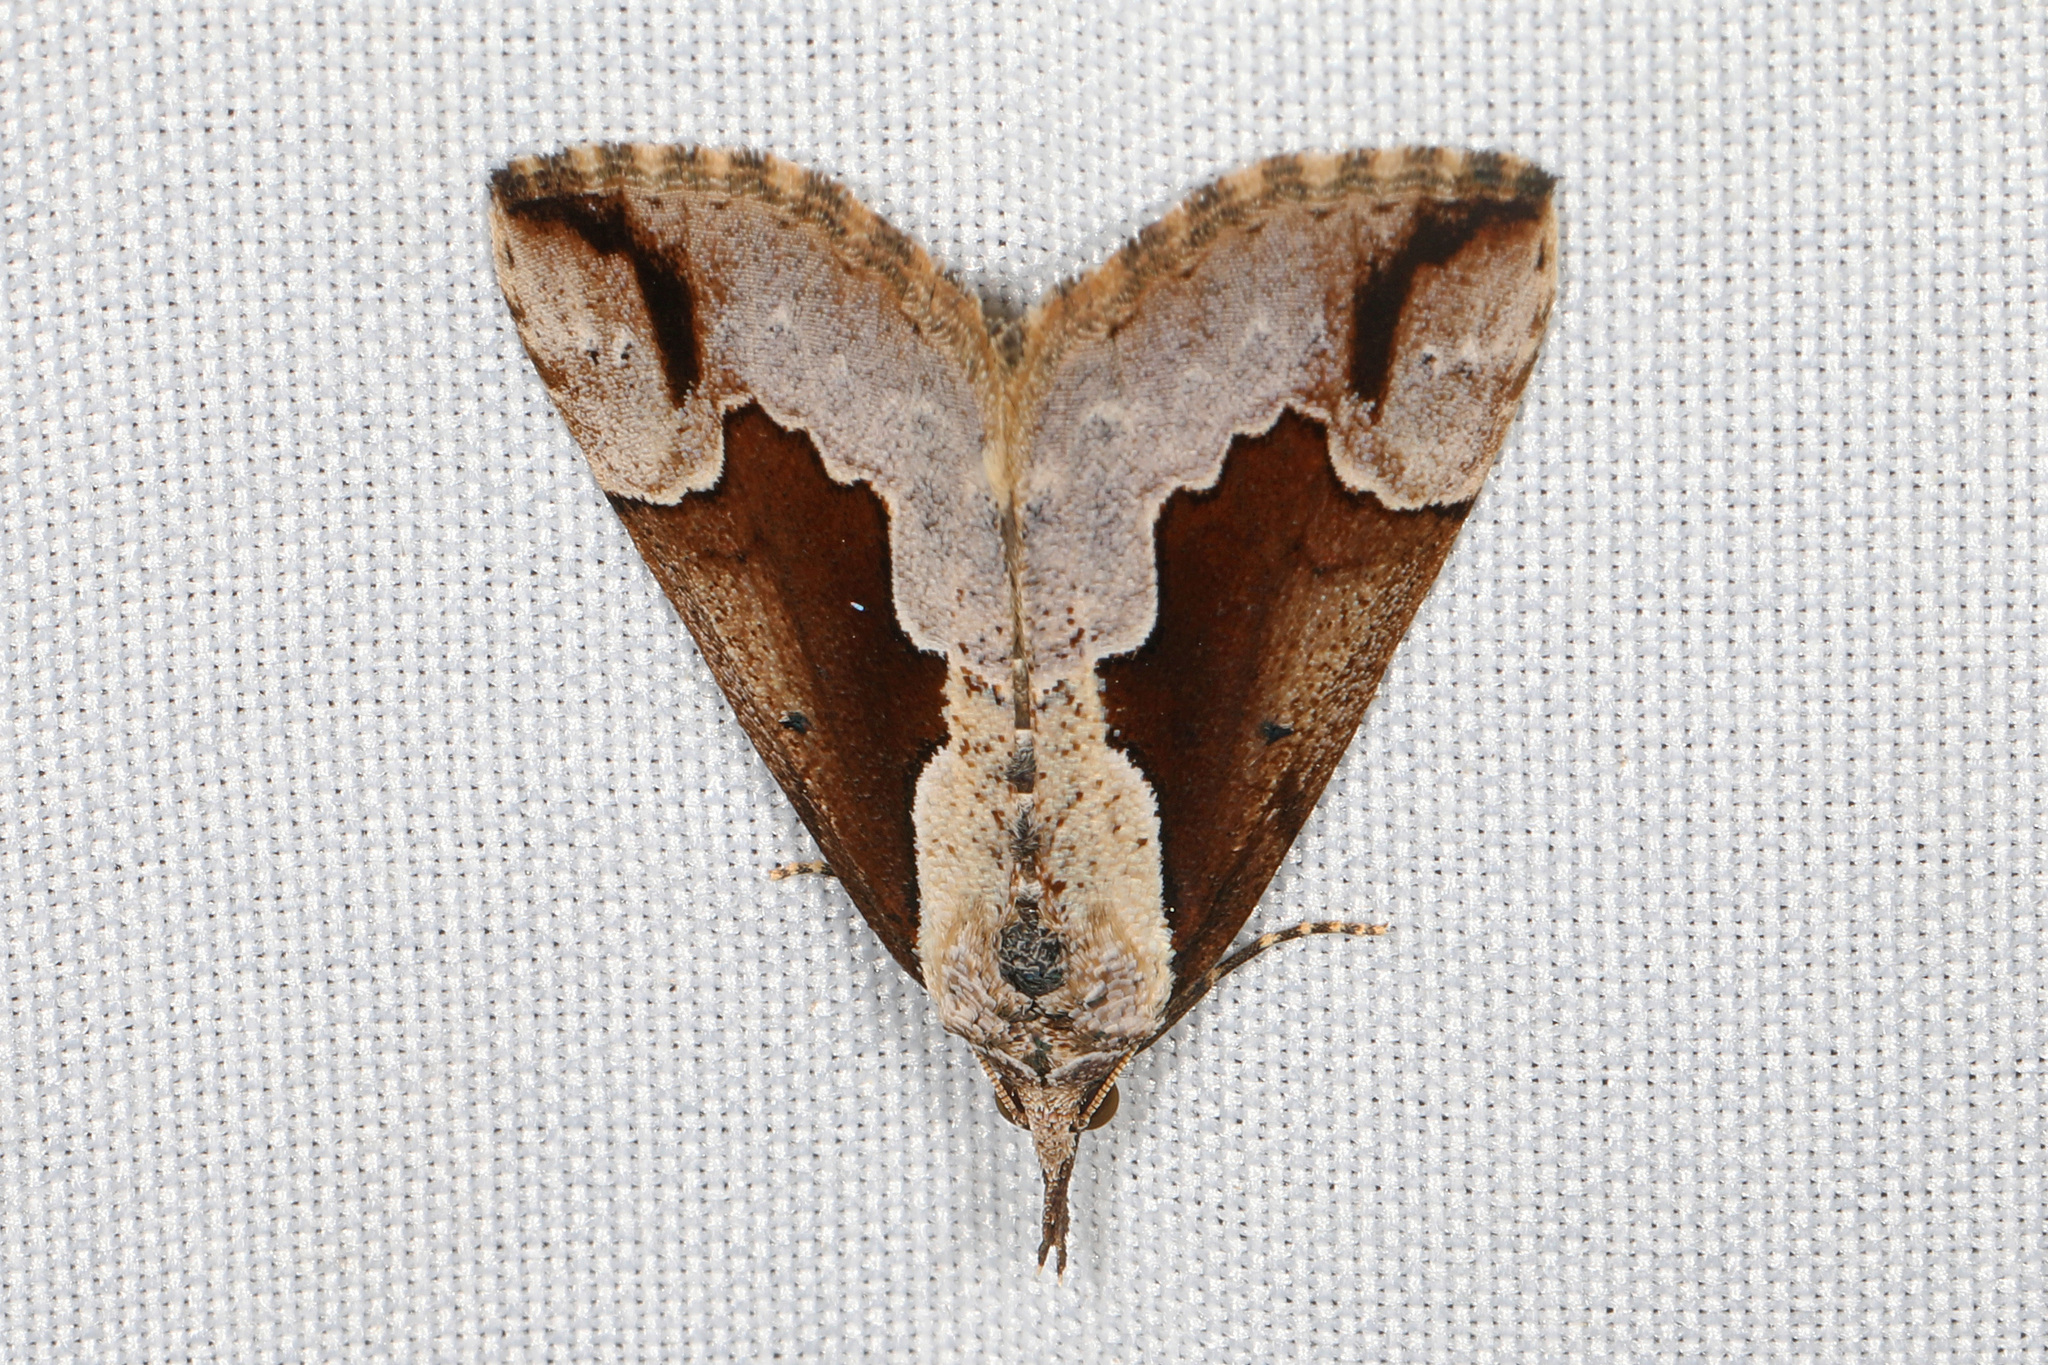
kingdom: Animalia
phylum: Arthropoda
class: Insecta
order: Lepidoptera
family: Erebidae
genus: Hypena
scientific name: Hypena baltimoralis
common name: Baltimore snout
